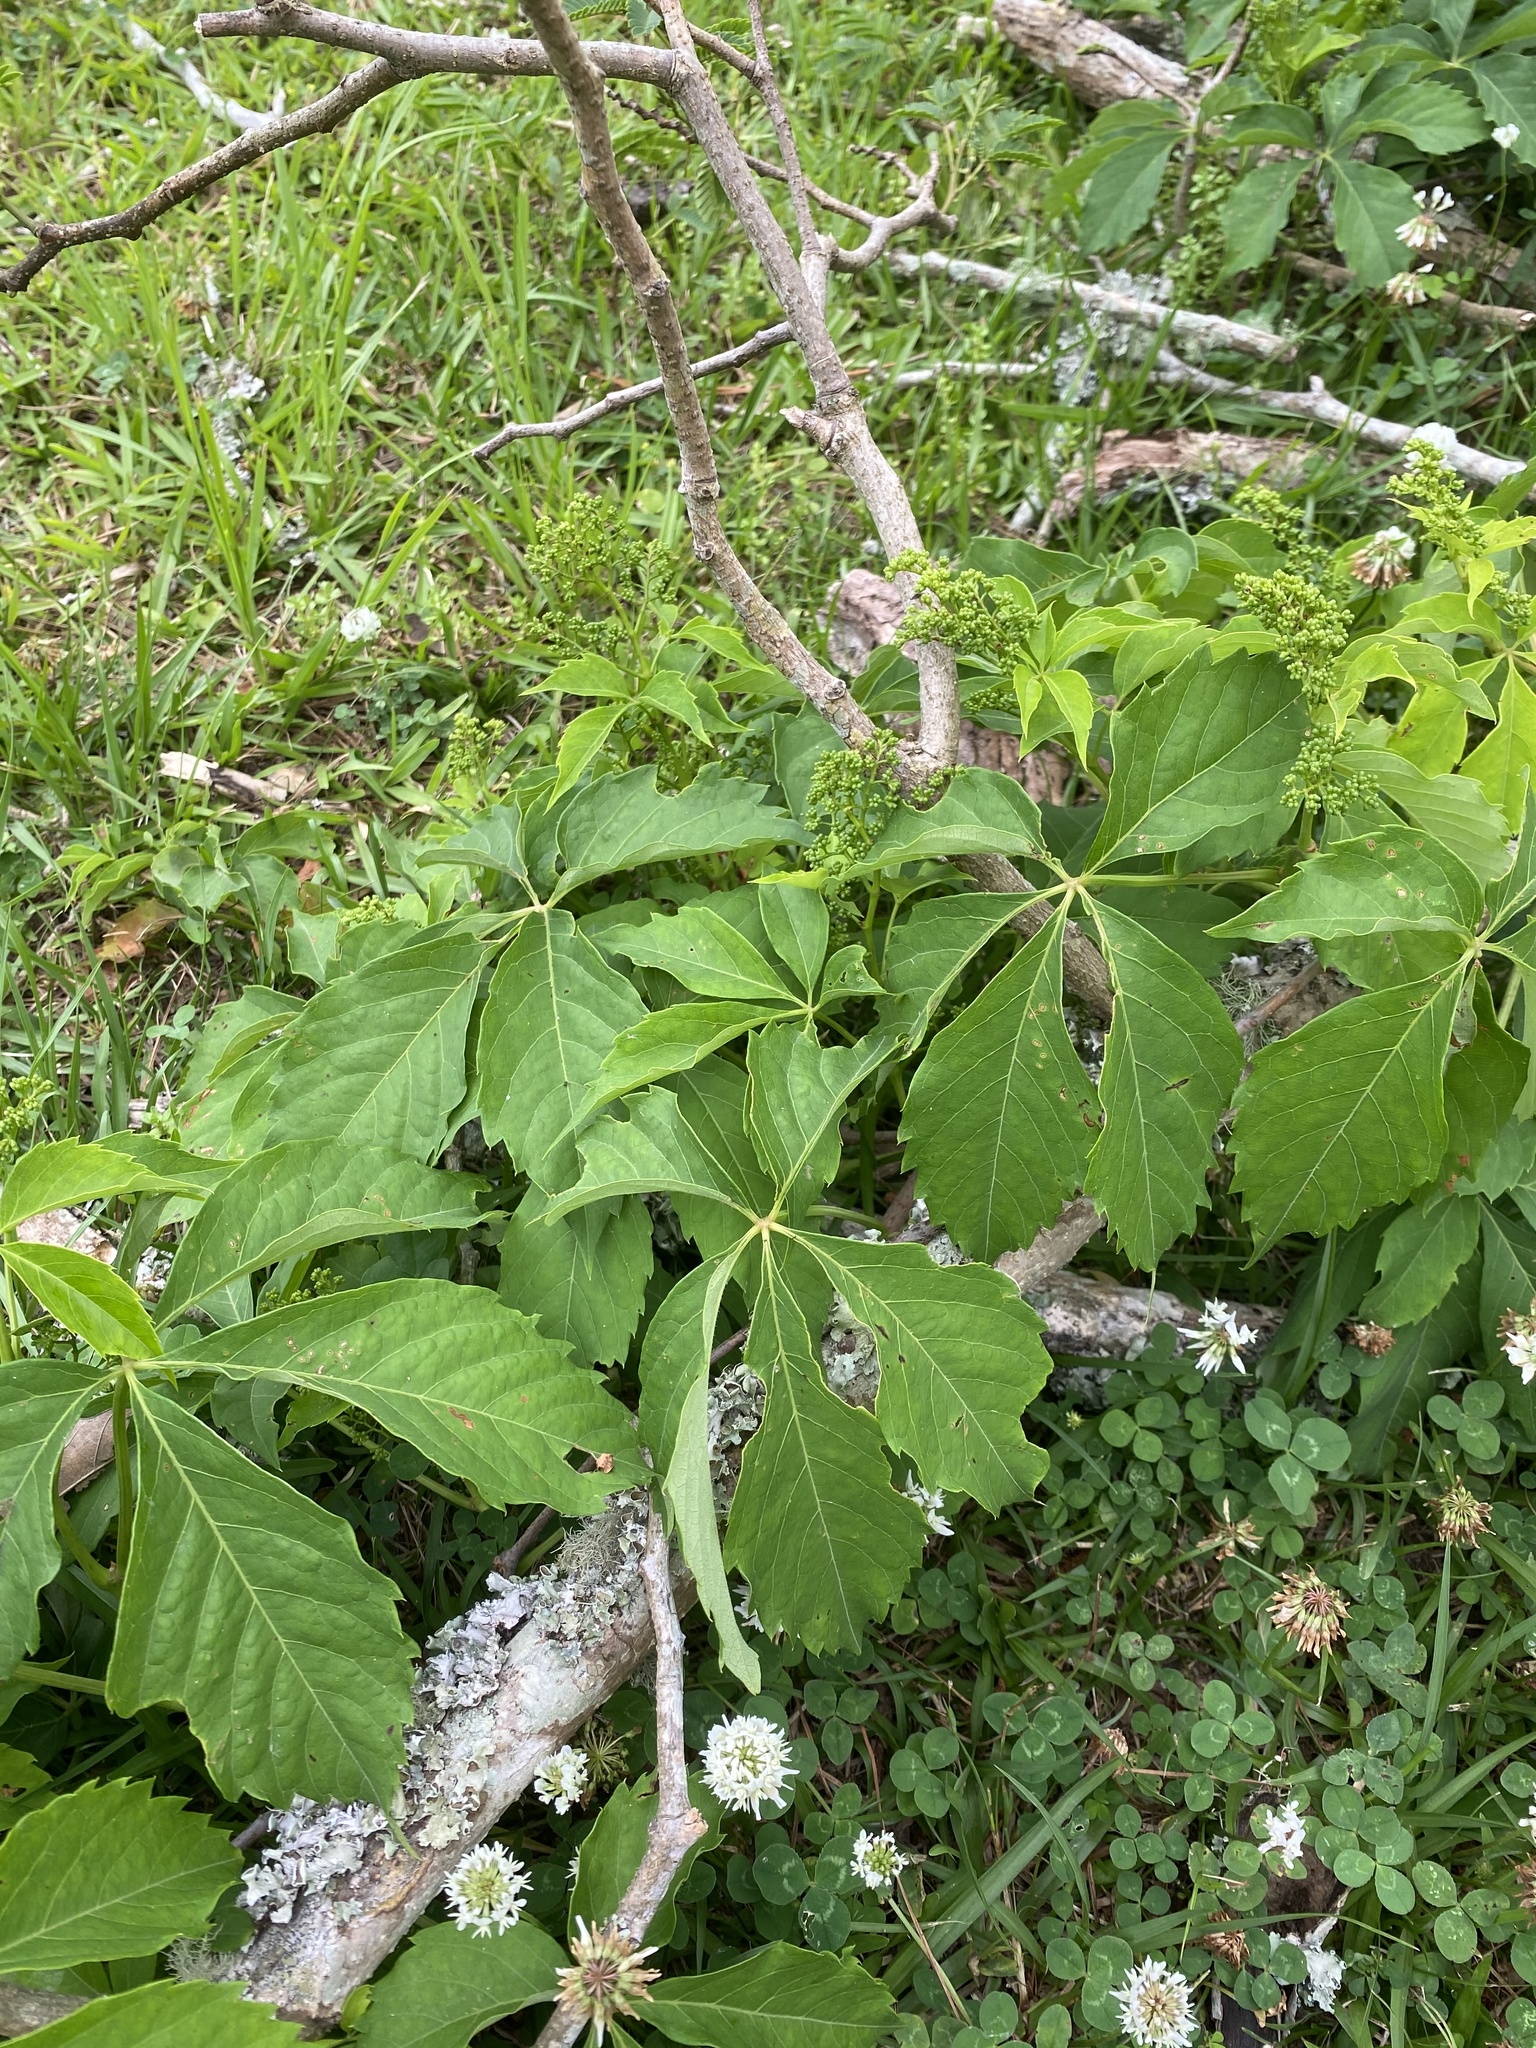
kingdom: Plantae
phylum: Tracheophyta
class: Magnoliopsida
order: Vitales
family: Vitaceae
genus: Parthenocissus
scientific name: Parthenocissus quinquefolia
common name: Virginia-creeper
